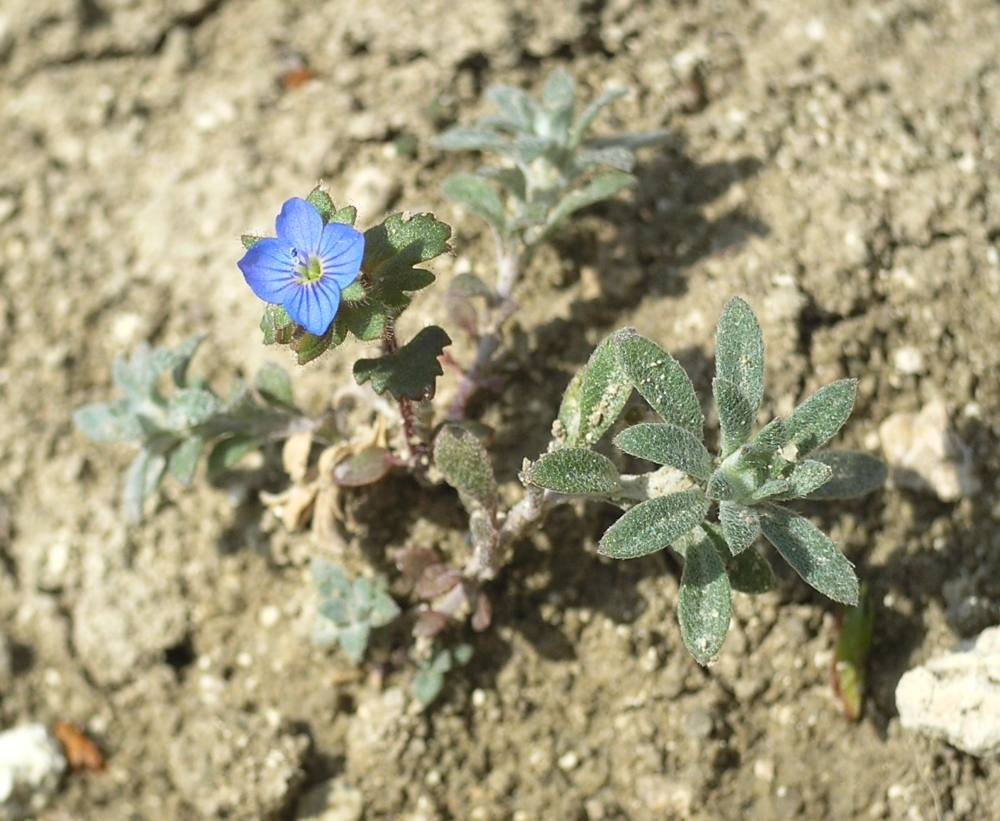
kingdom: Plantae
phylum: Tracheophyta
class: Magnoliopsida
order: Lamiales
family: Plantaginaceae
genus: Veronica
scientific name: Veronica praecox
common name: Breckland speedwell
